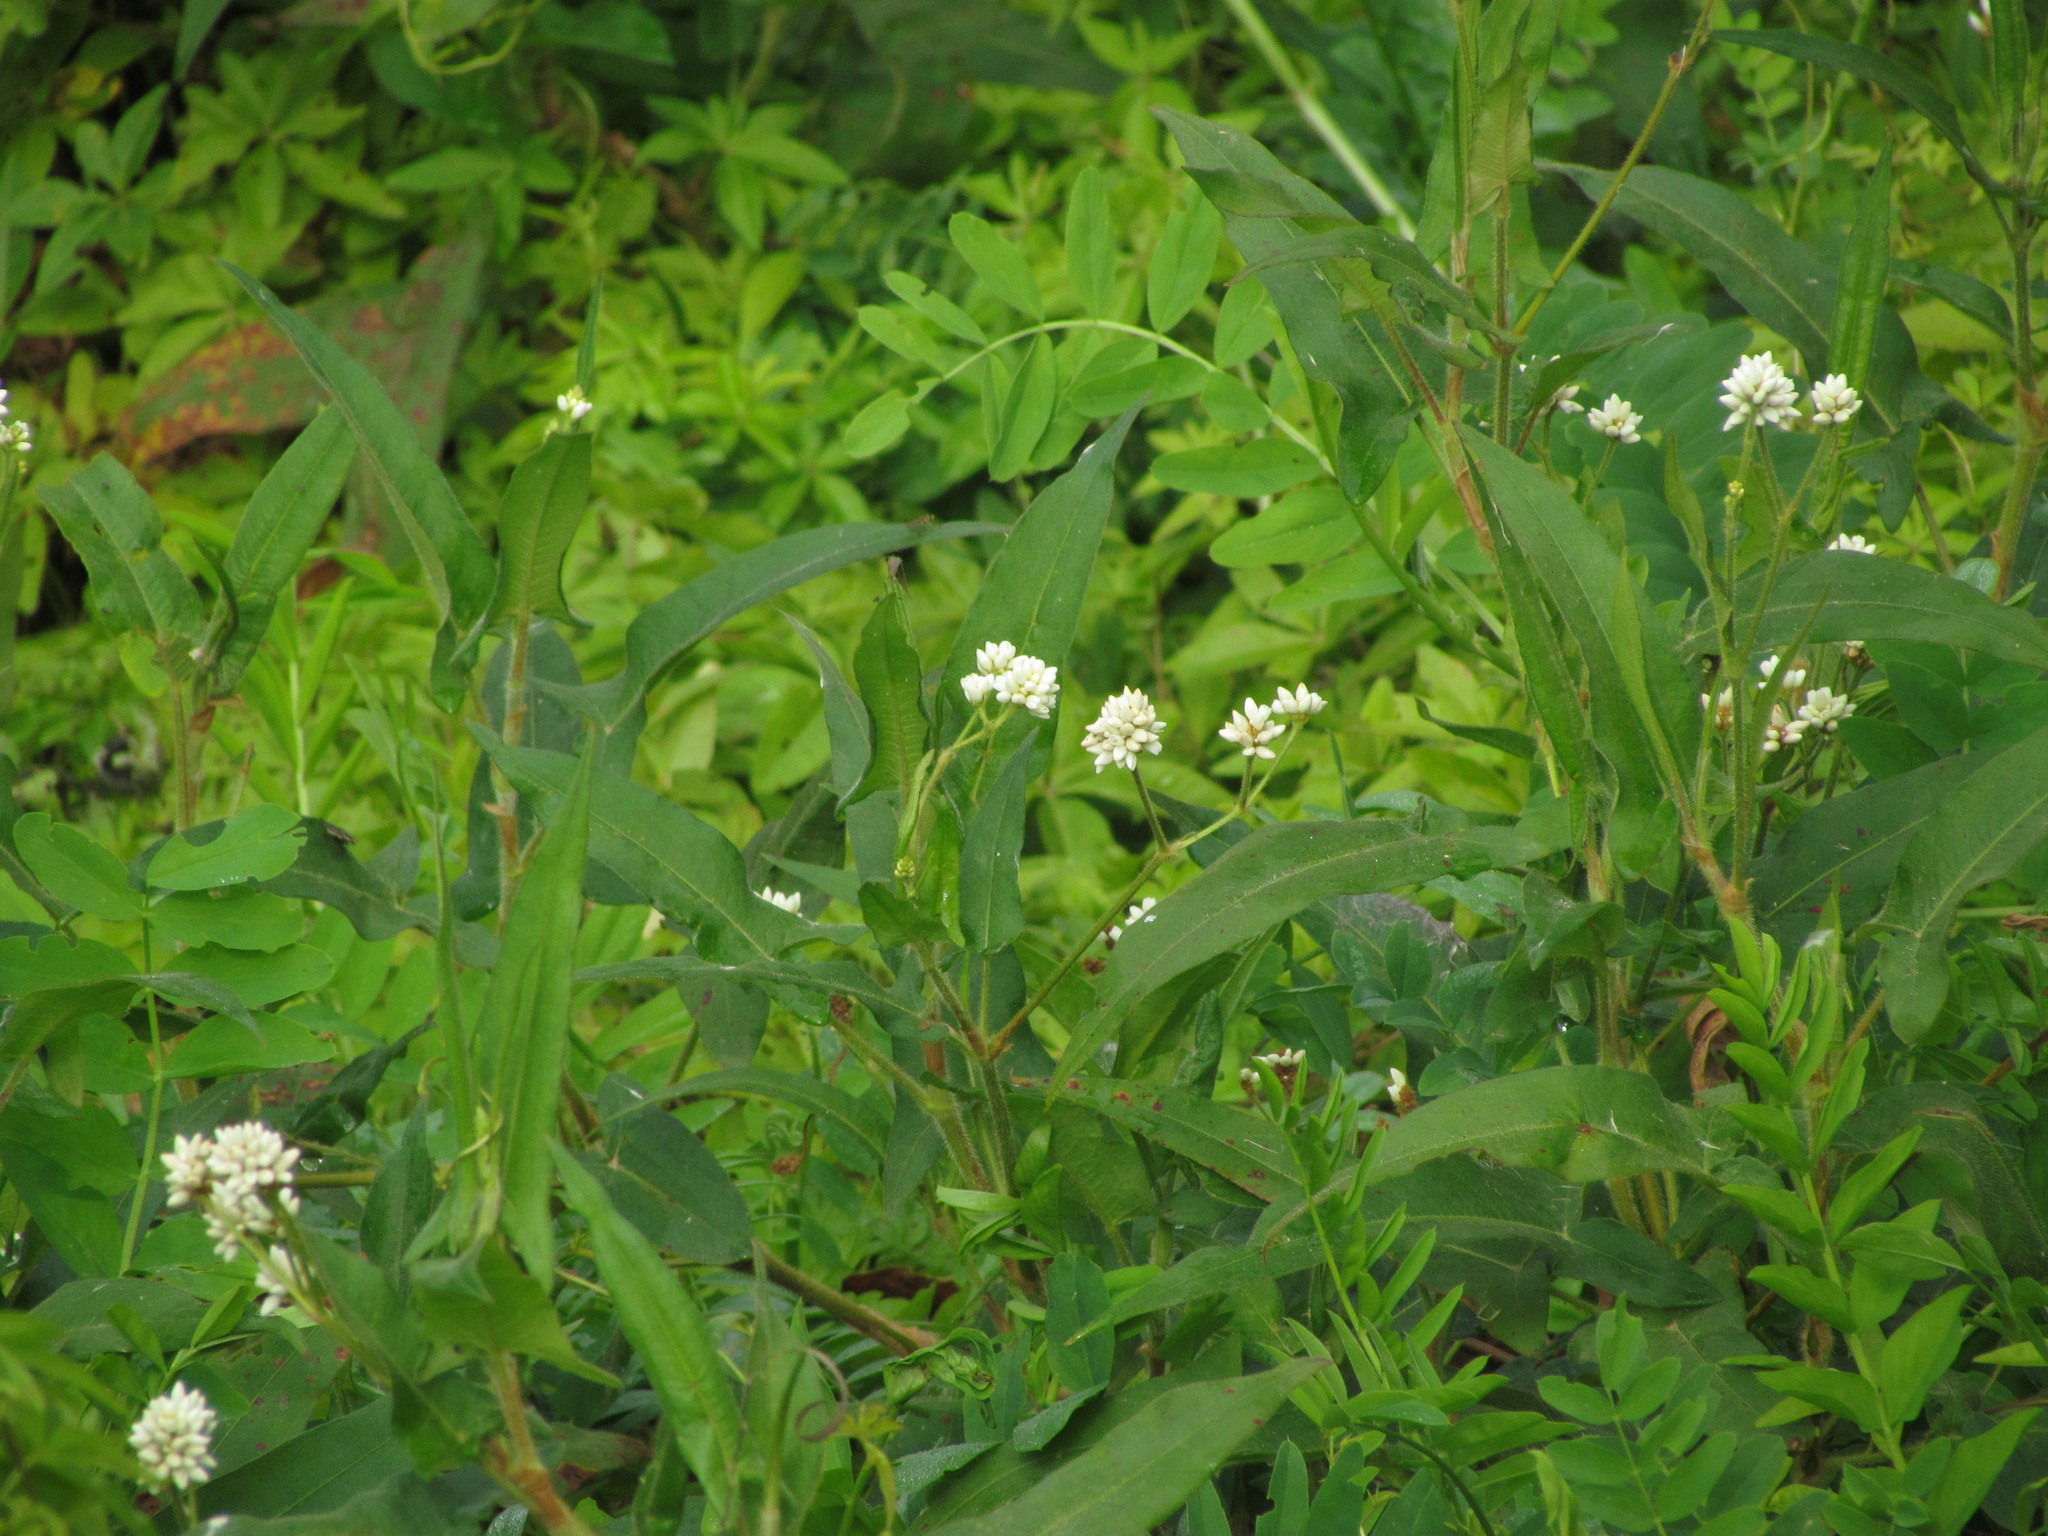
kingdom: Plantae
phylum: Tracheophyta
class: Magnoliopsida
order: Caryophyllales
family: Polygonaceae
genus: Persicaria
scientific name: Persicaria stelligera
